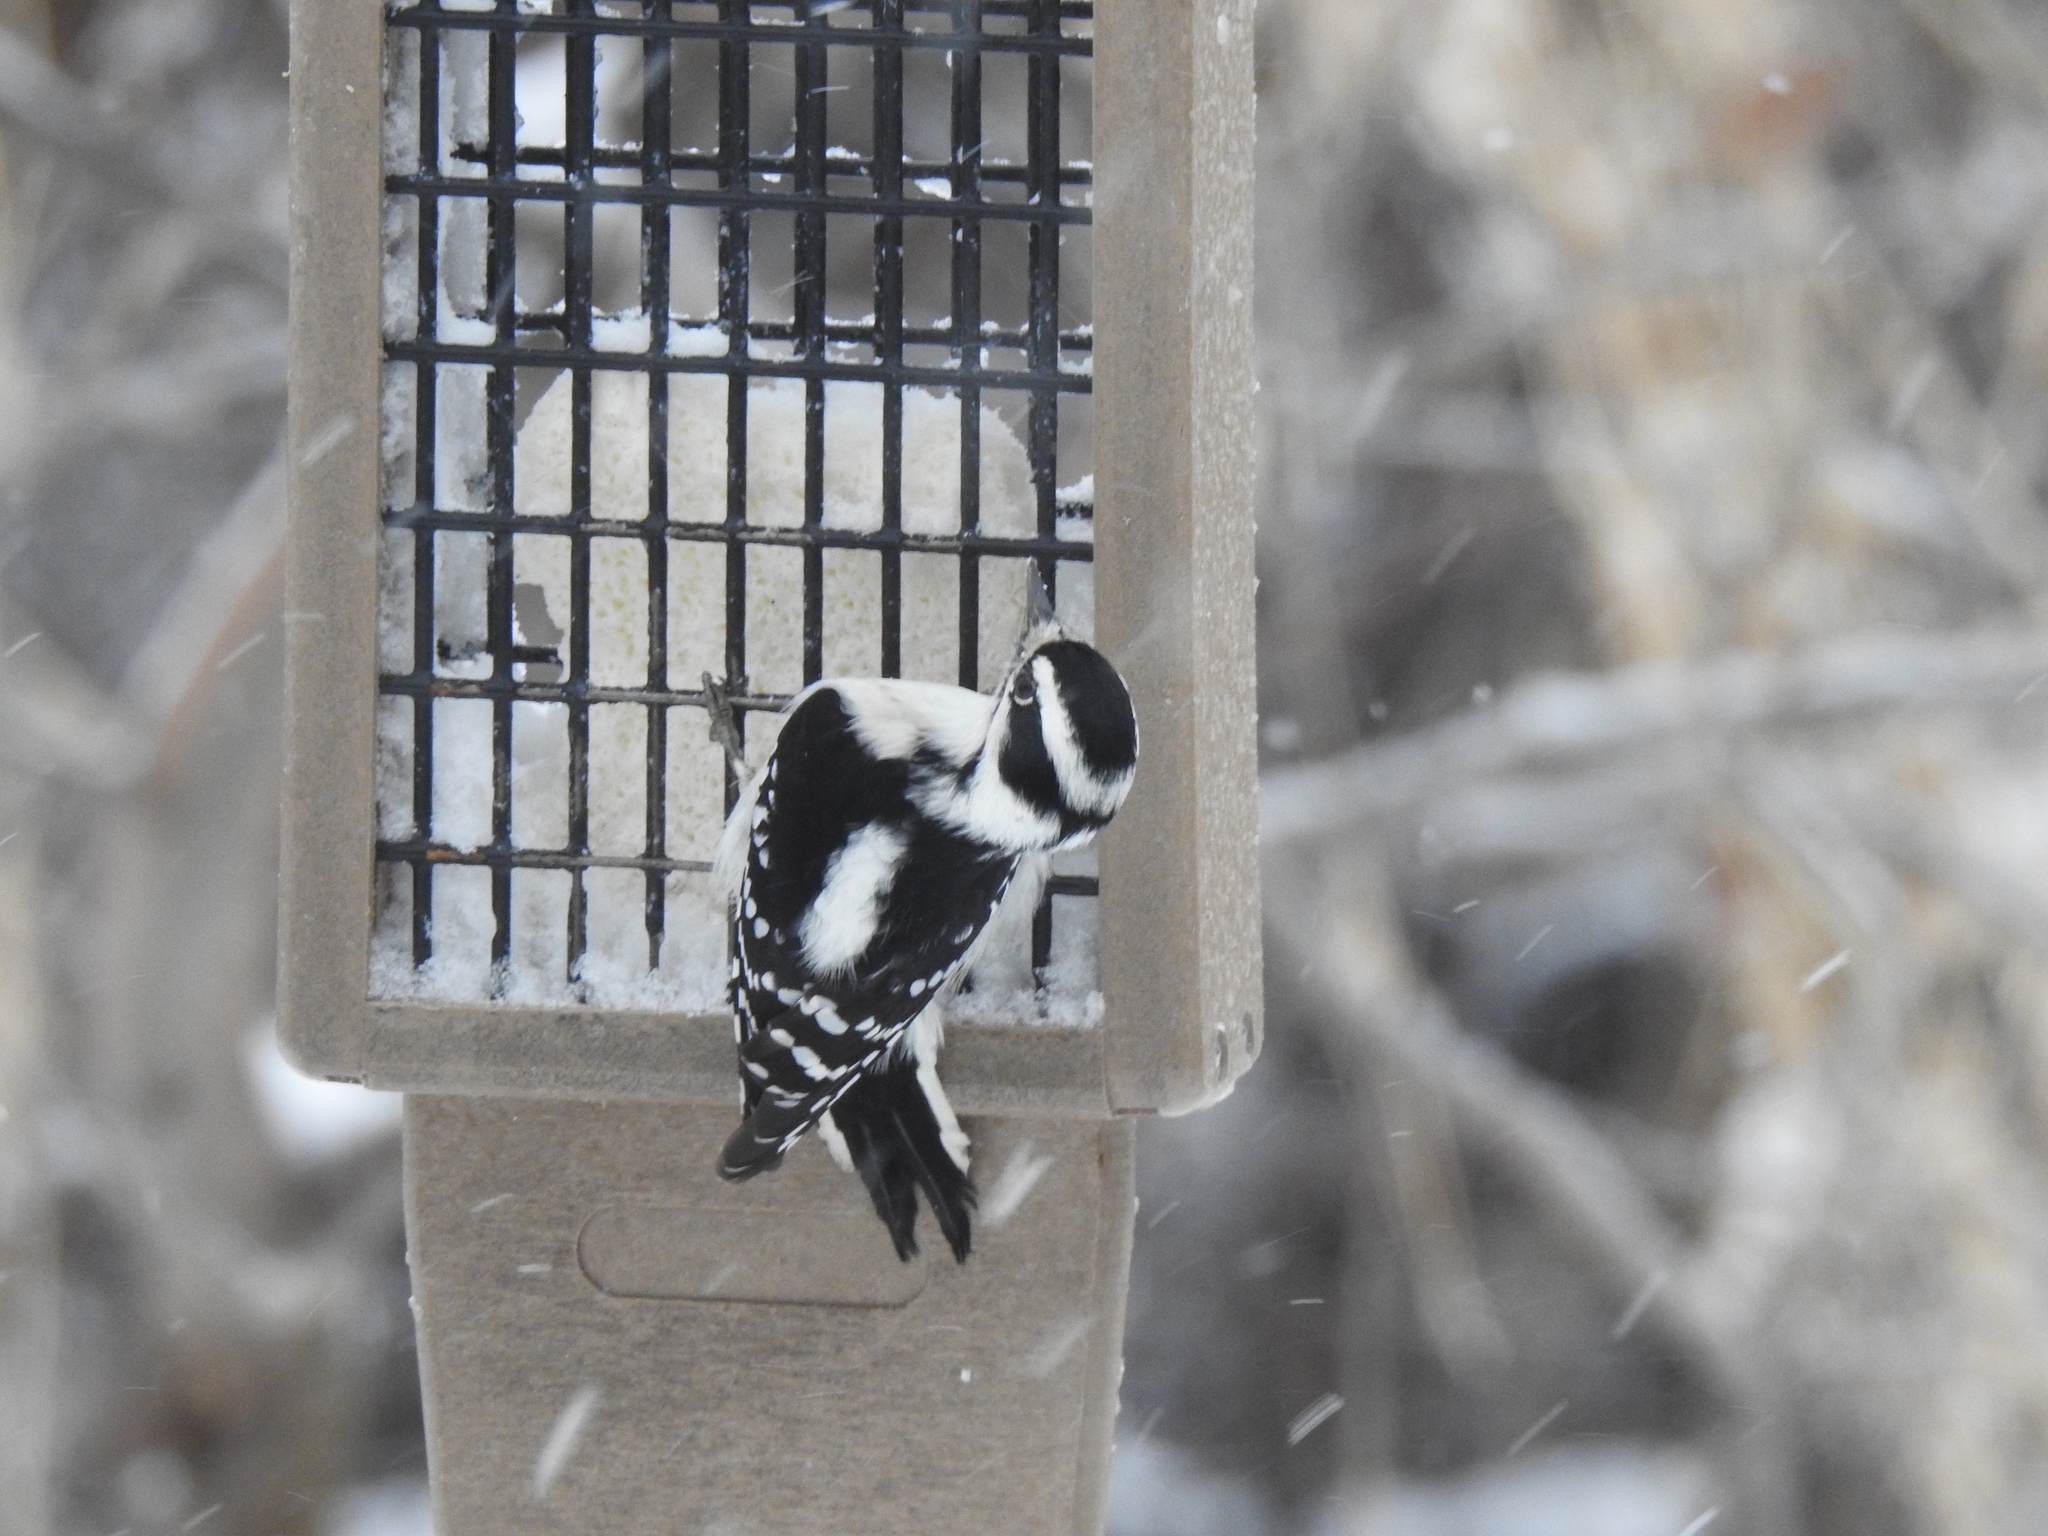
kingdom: Animalia
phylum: Chordata
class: Aves
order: Piciformes
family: Picidae
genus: Leuconotopicus
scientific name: Leuconotopicus villosus
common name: Hairy woodpecker
